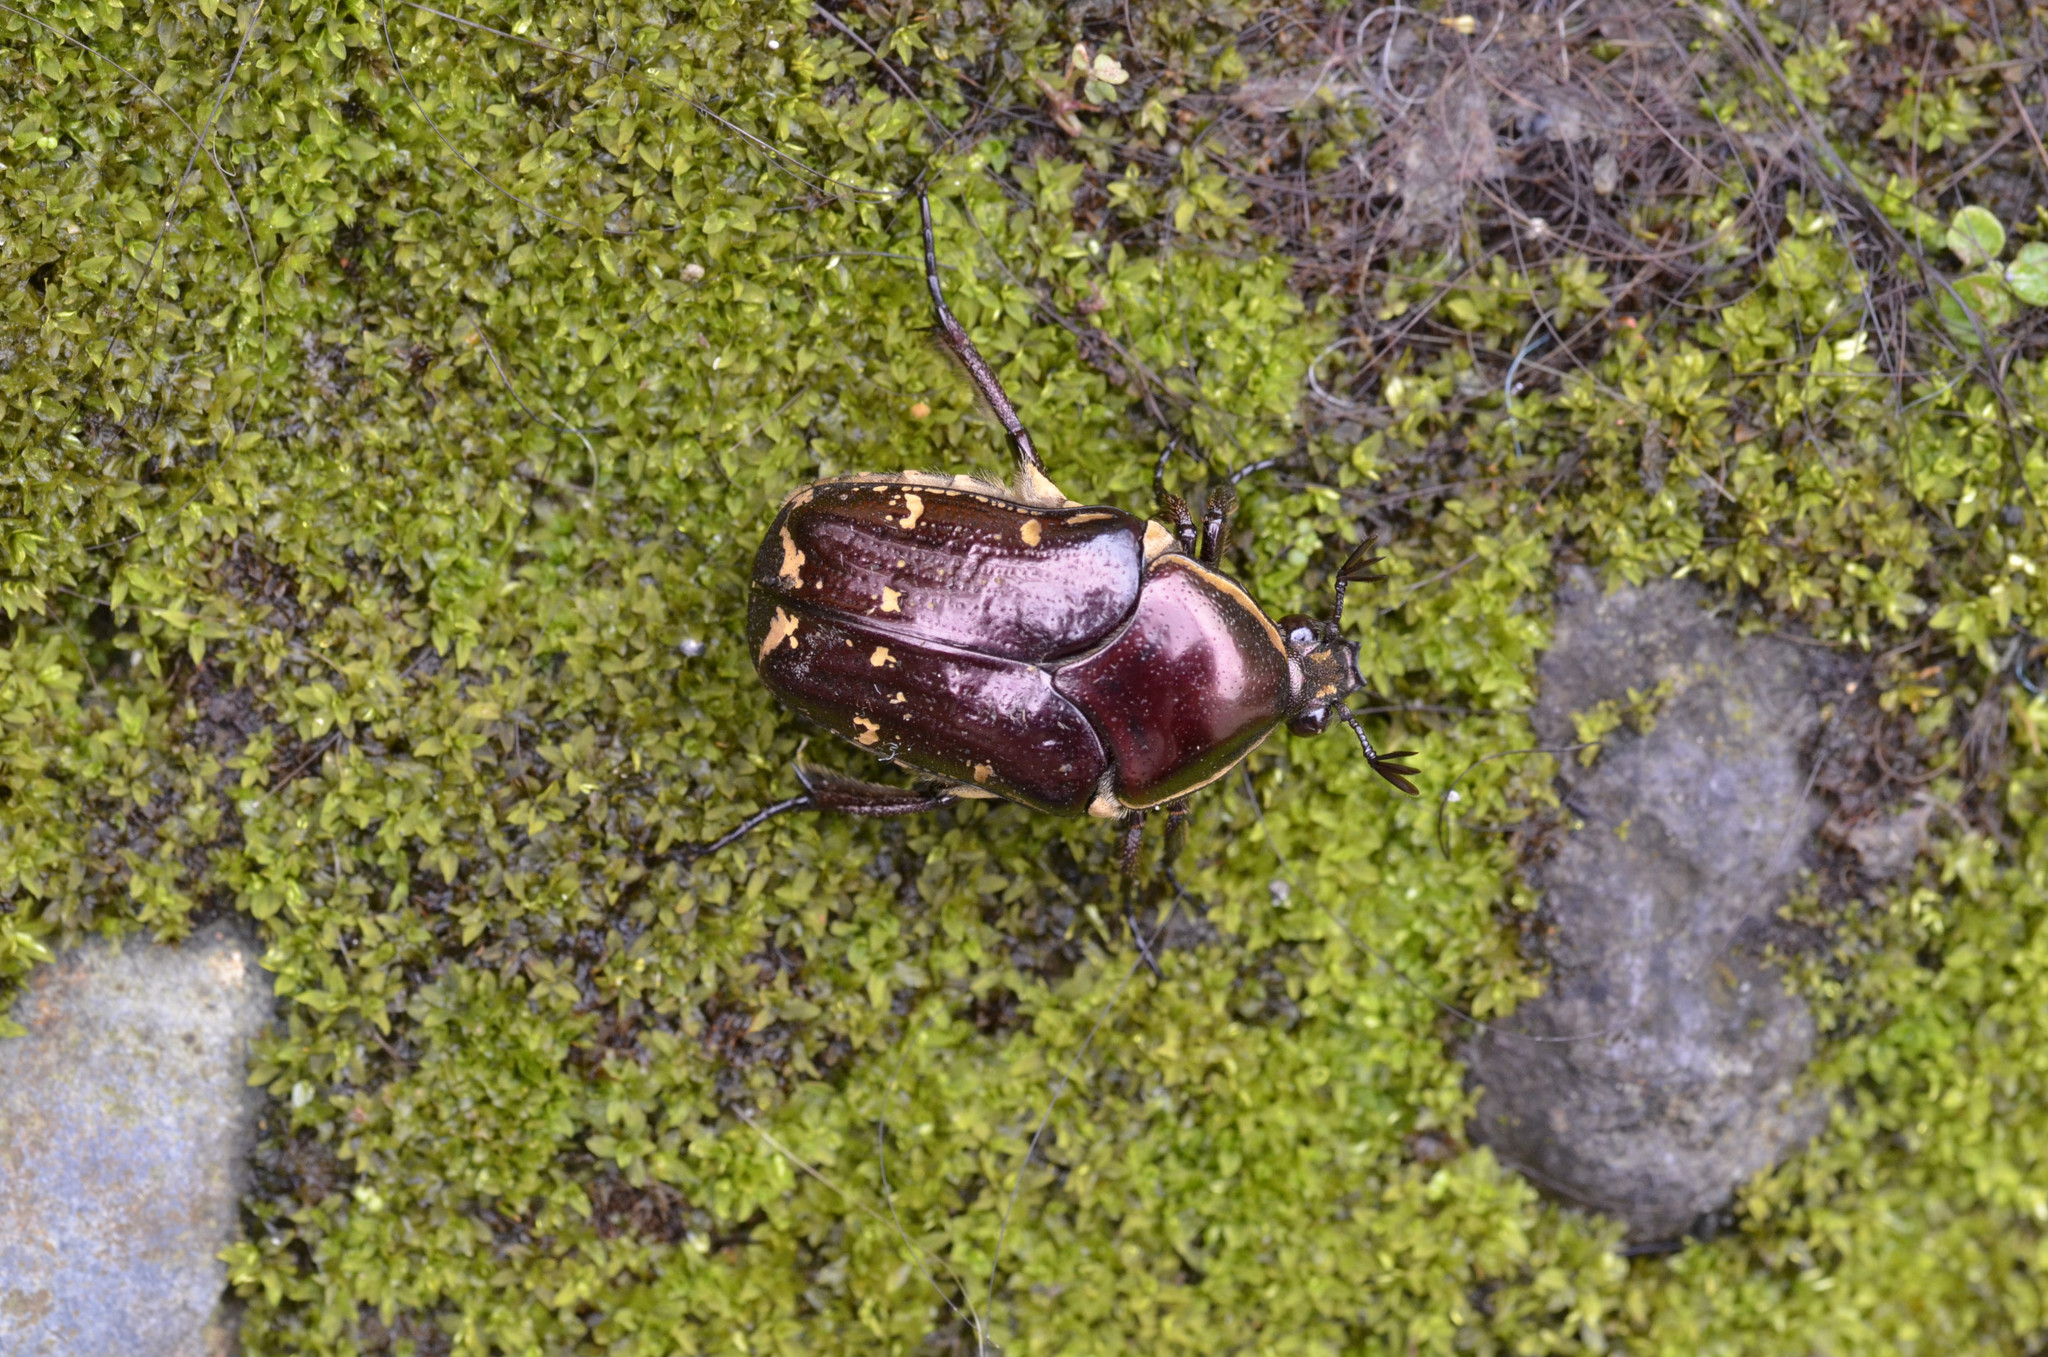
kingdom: Animalia
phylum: Arthropoda
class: Insecta
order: Coleoptera
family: Scarabaeidae
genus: Amithao
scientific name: Amithao decemguttatus
